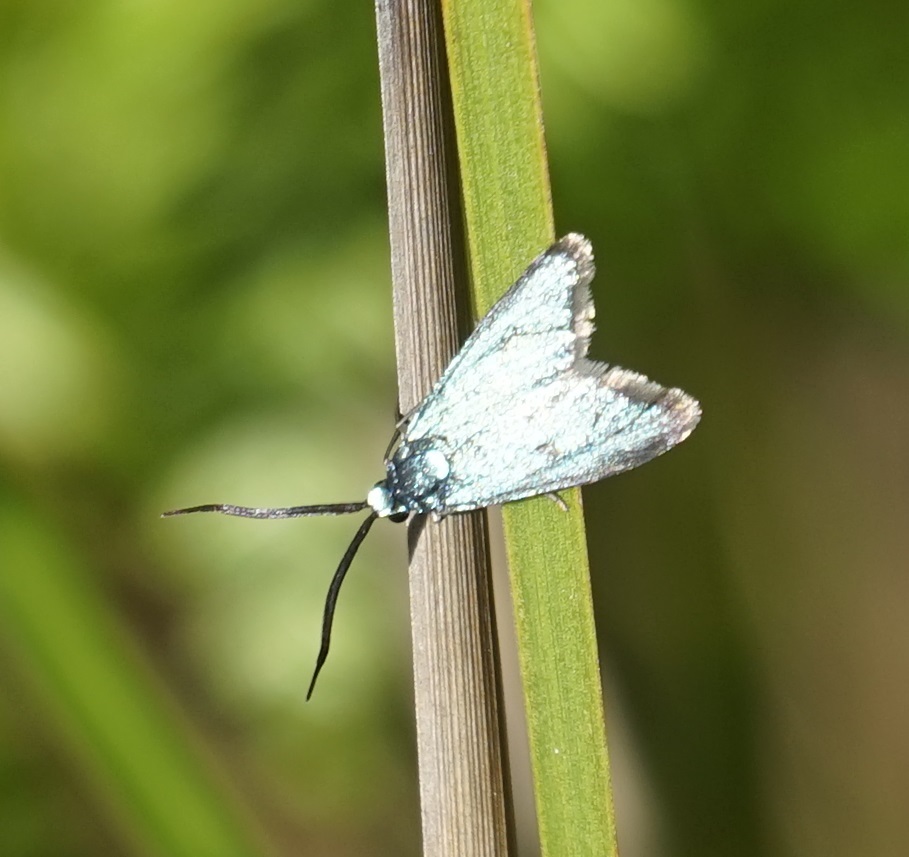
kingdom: Animalia
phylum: Arthropoda
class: Insecta
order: Lepidoptera
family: Zygaenidae
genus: Pollanisus
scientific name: Pollanisus viridipulverulenta
